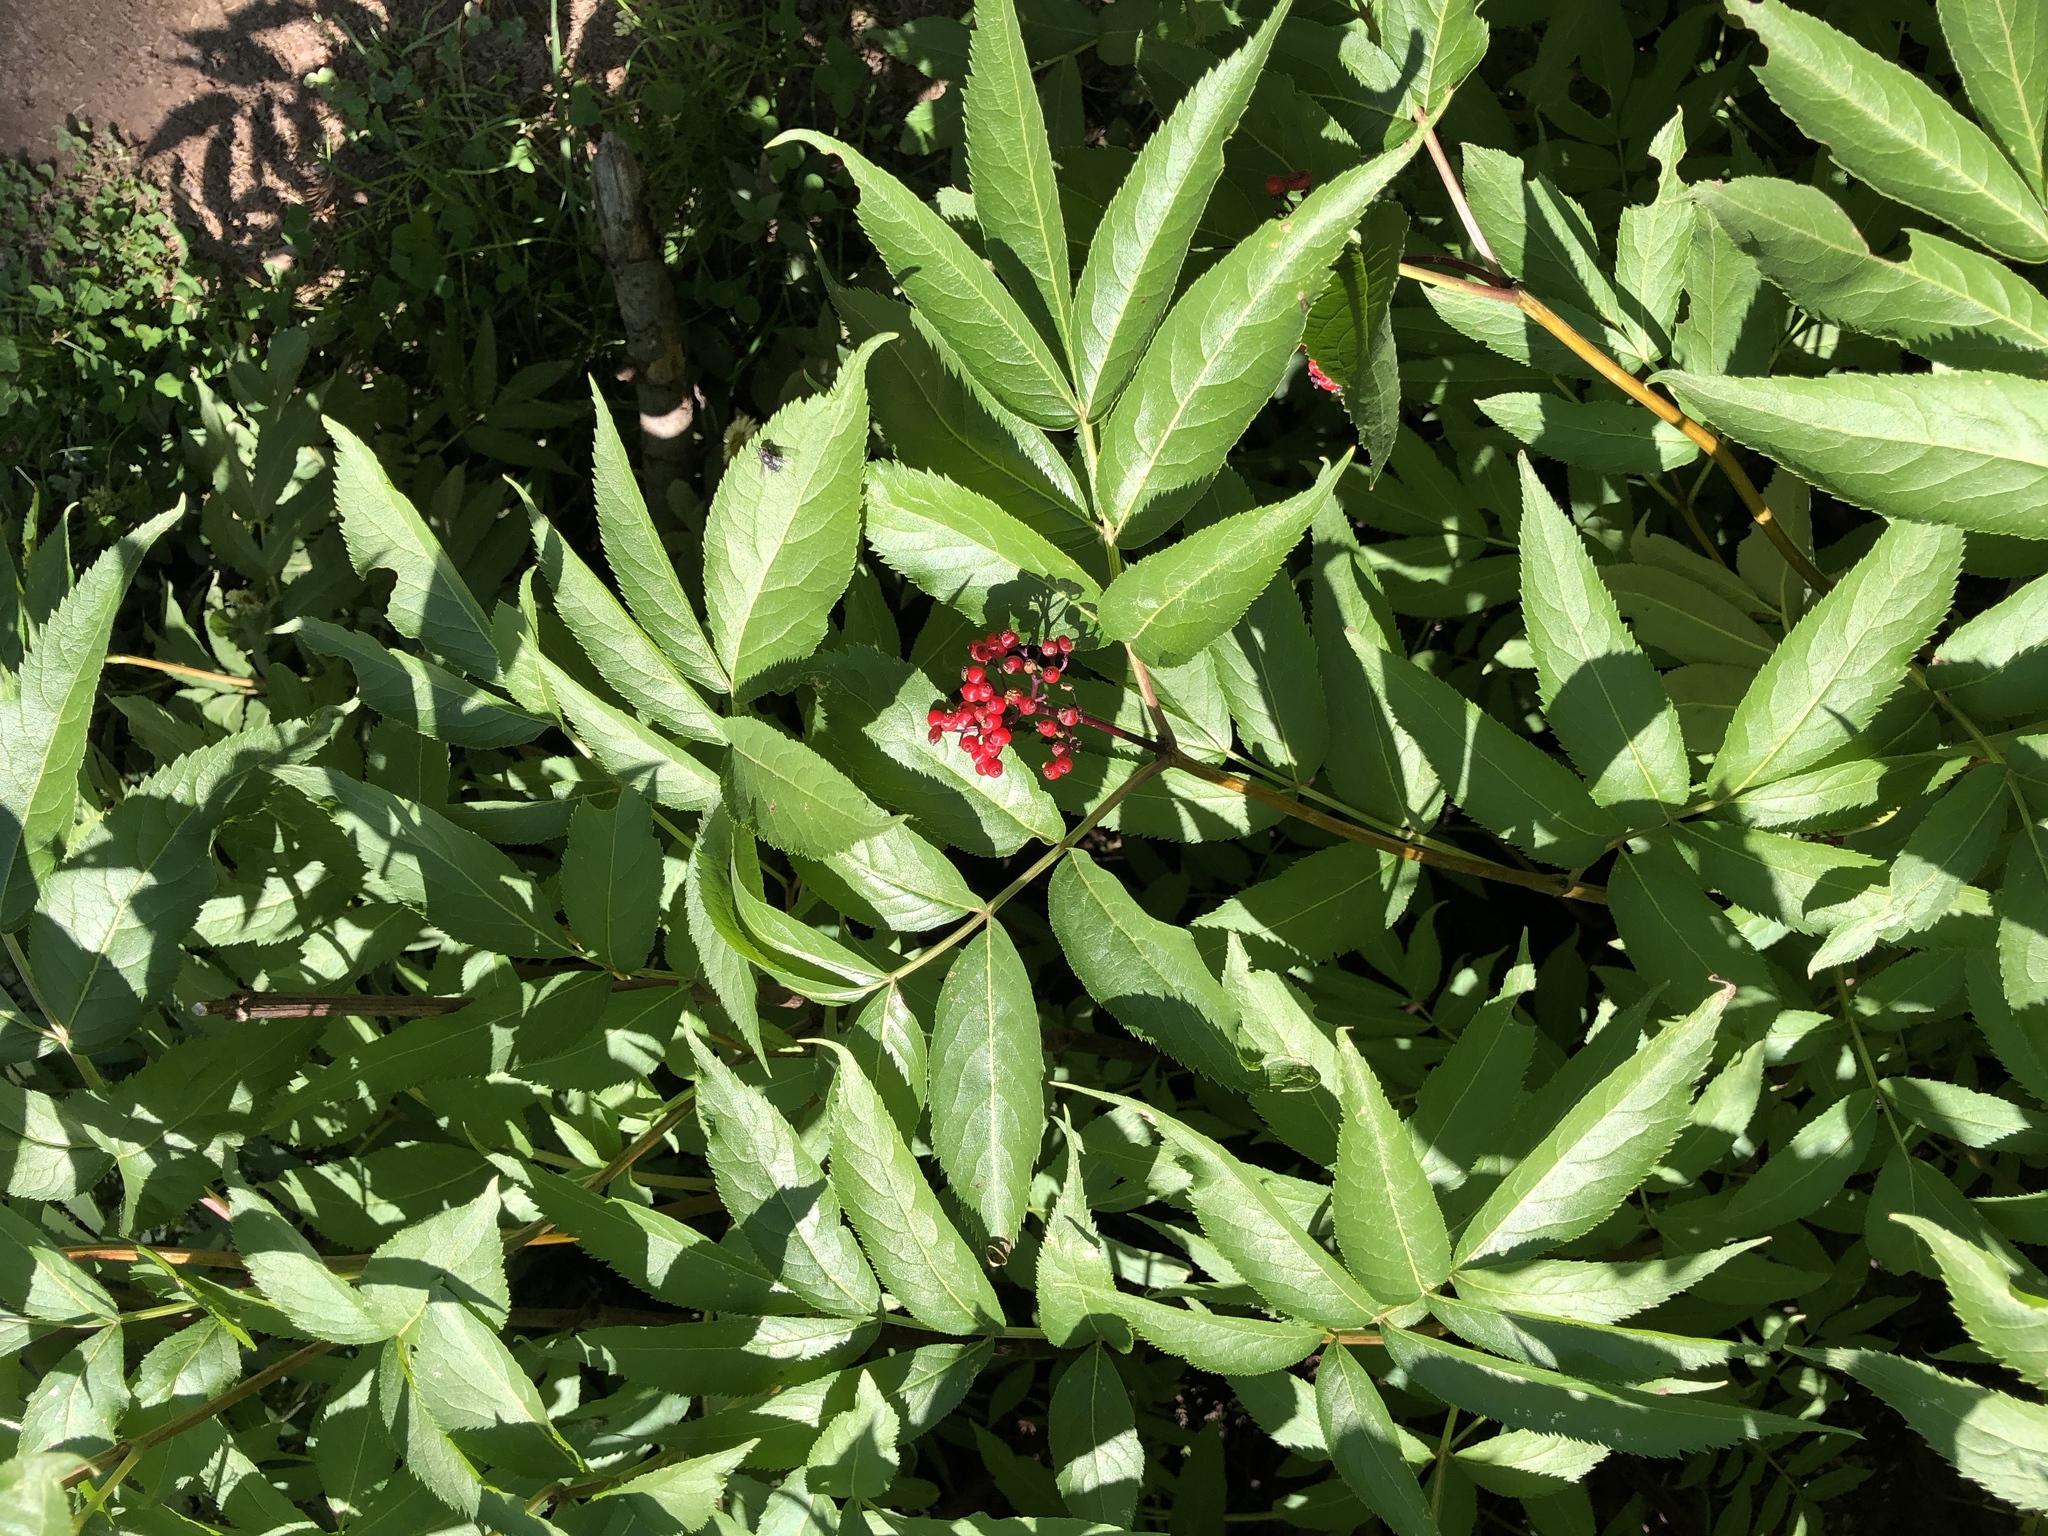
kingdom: Plantae
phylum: Tracheophyta
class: Magnoliopsida
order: Dipsacales
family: Viburnaceae
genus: Sambucus
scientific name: Sambucus racemosa
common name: Red-berried elder
